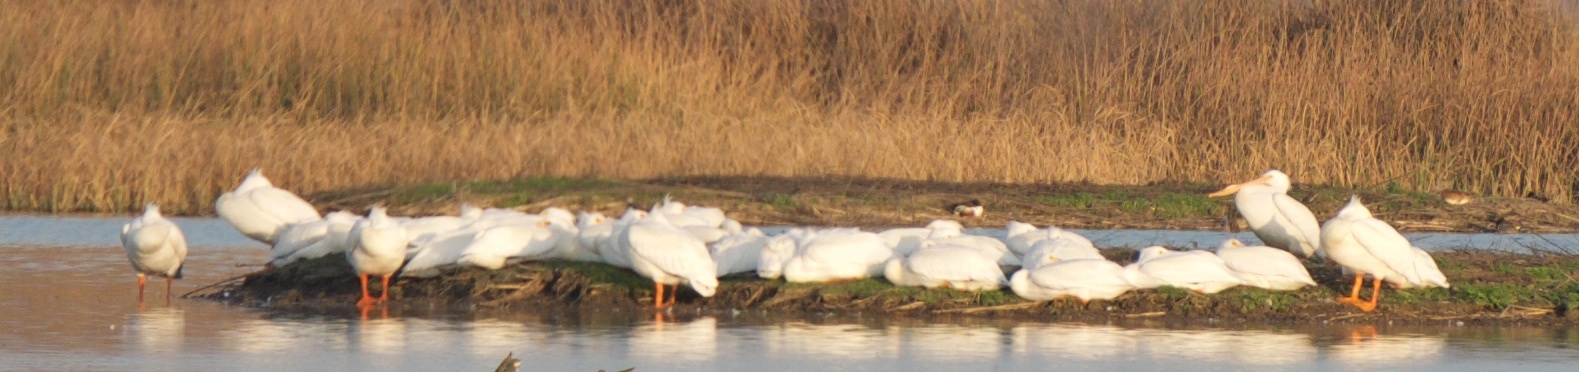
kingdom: Animalia
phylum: Chordata
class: Aves
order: Pelecaniformes
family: Pelecanidae
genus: Pelecanus
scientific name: Pelecanus erythrorhynchos
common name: American white pelican
